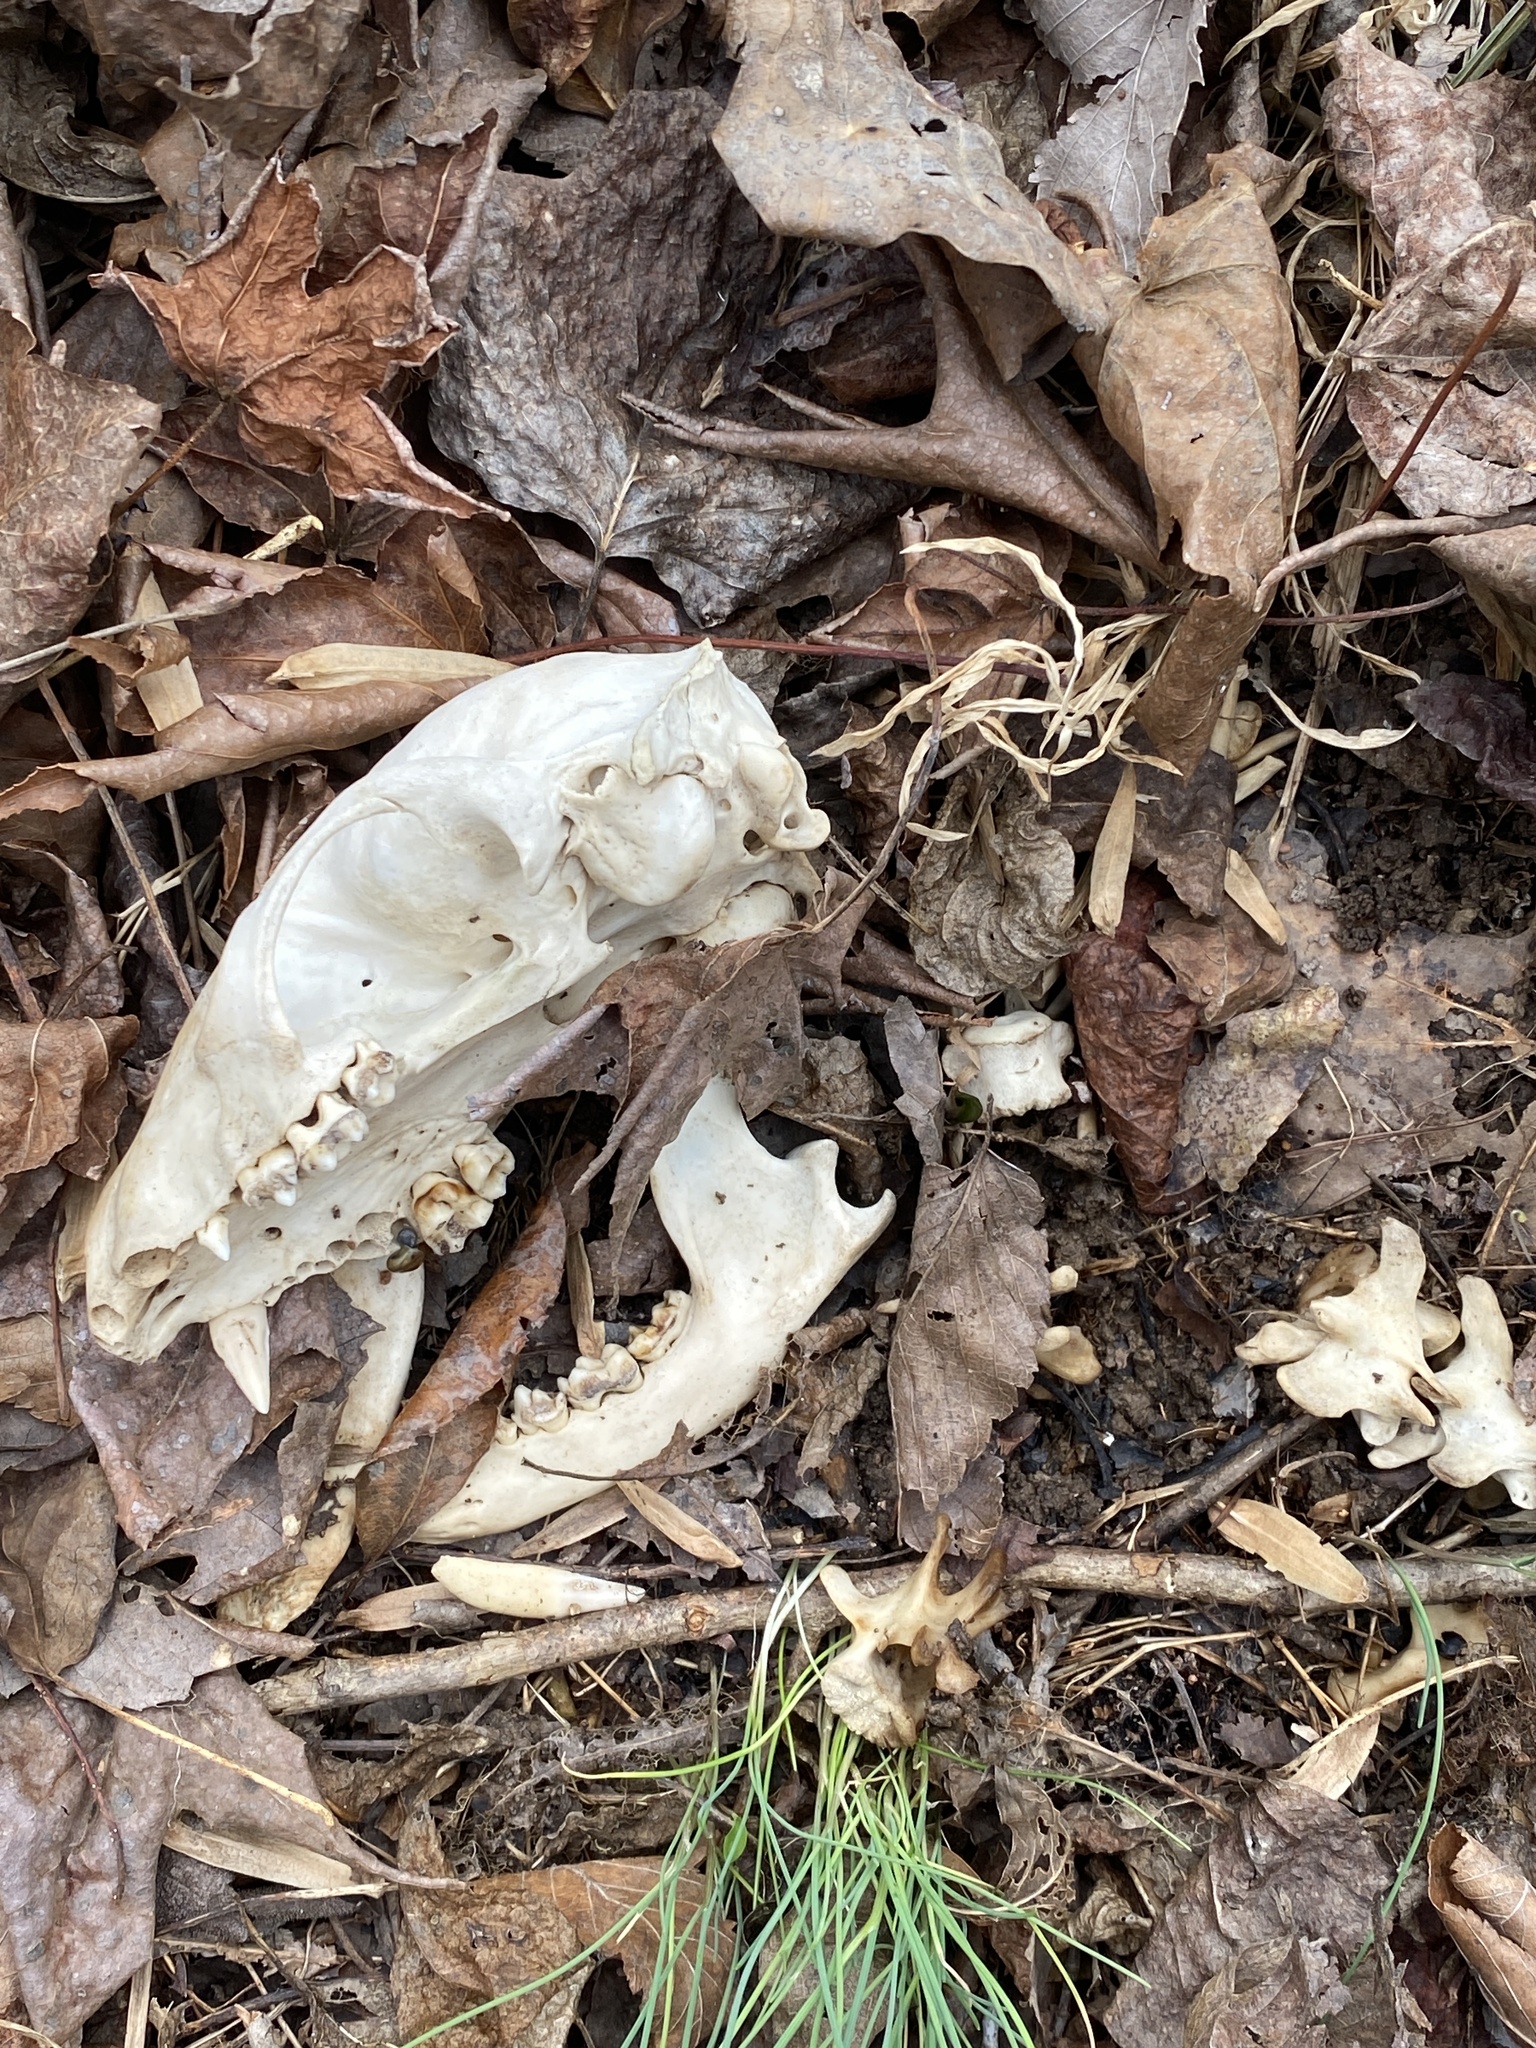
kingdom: Animalia
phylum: Chordata
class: Mammalia
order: Carnivora
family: Procyonidae
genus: Procyon
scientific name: Procyon lotor
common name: Raccoon
